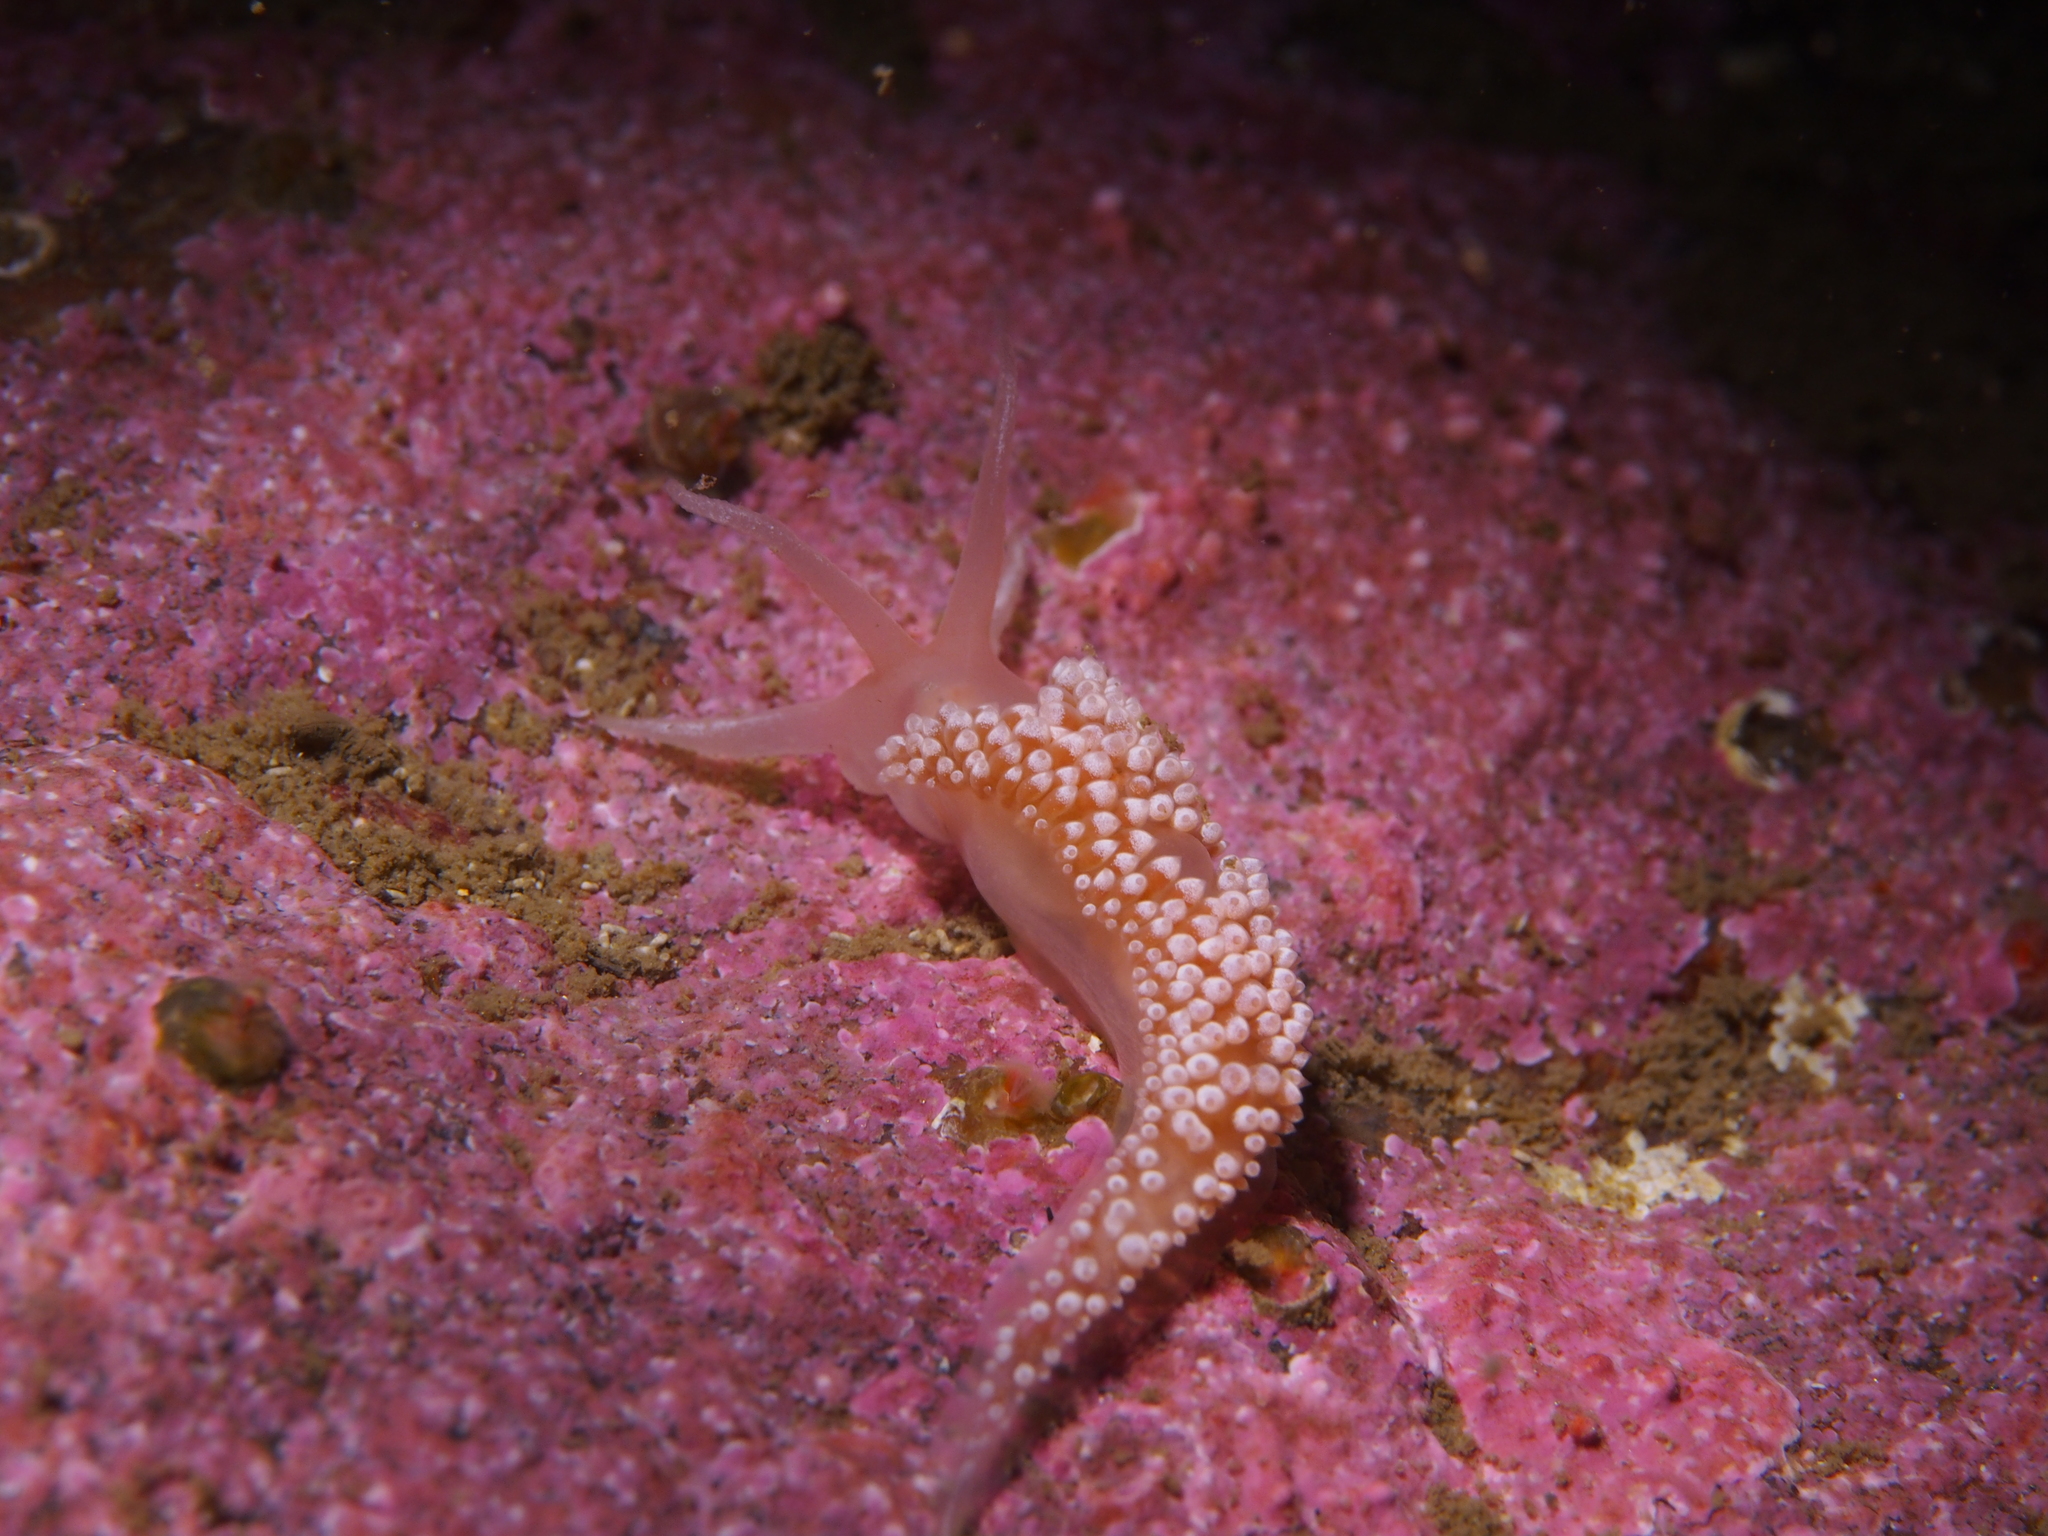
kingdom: Animalia
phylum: Mollusca
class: Gastropoda
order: Nudibranchia
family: Coryphellidae
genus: Coryphella
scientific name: Coryphella verrucosa
